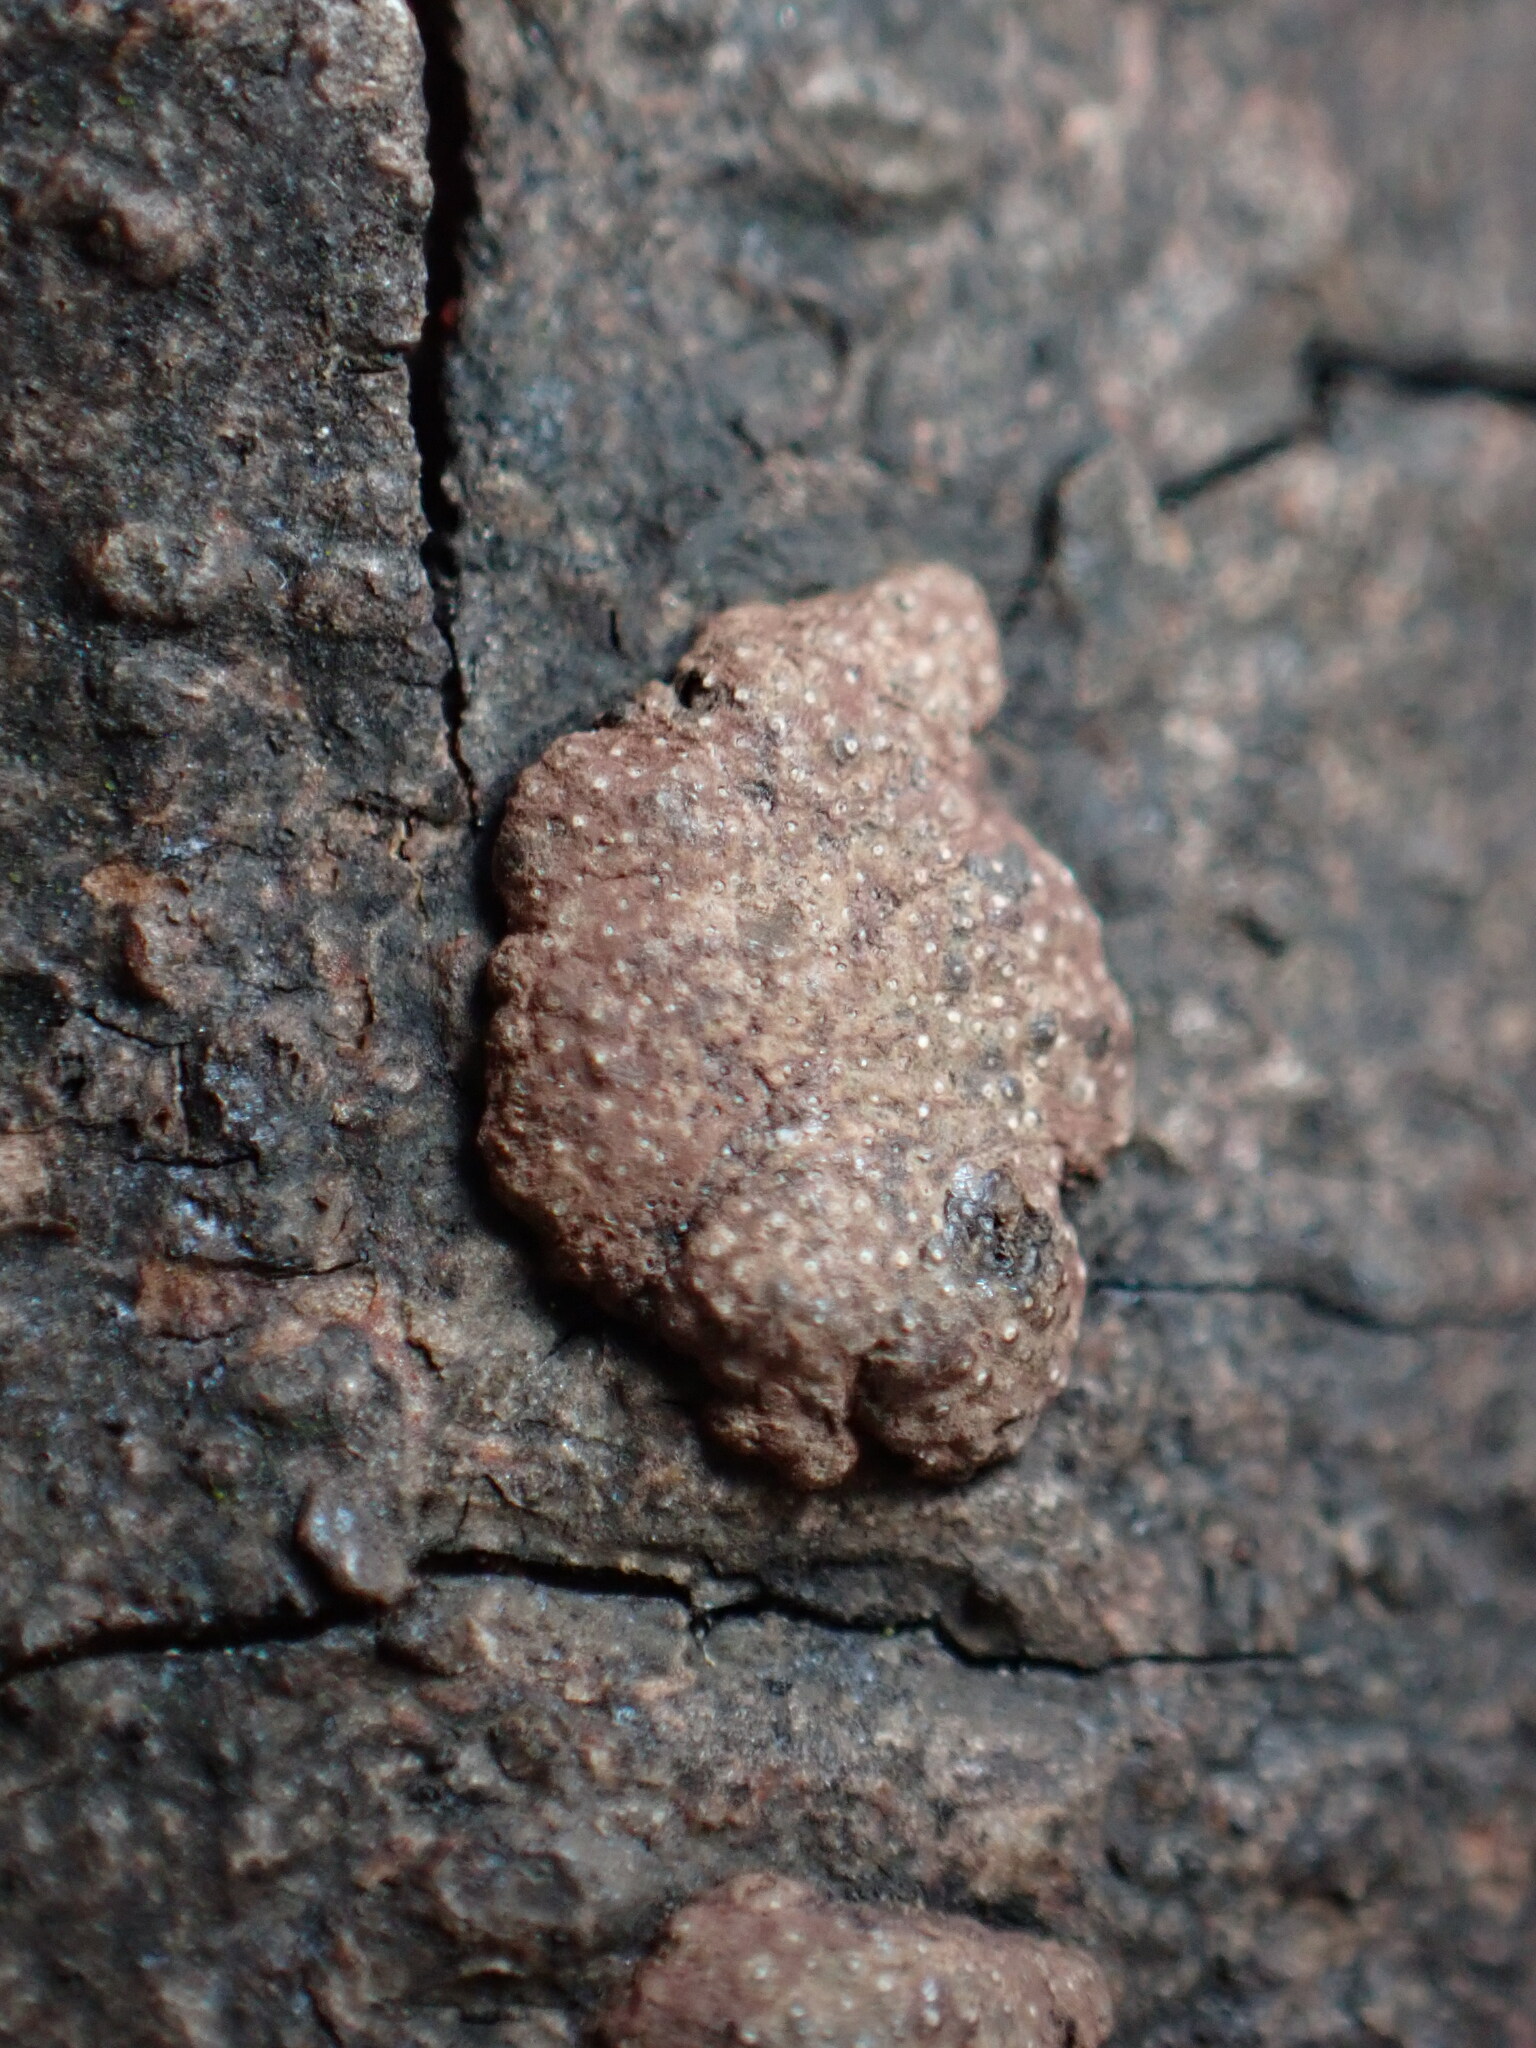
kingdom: Fungi
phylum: Ascomycota
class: Sordariomycetes
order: Xylariales
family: Hypoxylaceae
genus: Hypoxylon
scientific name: Hypoxylon perforatum
